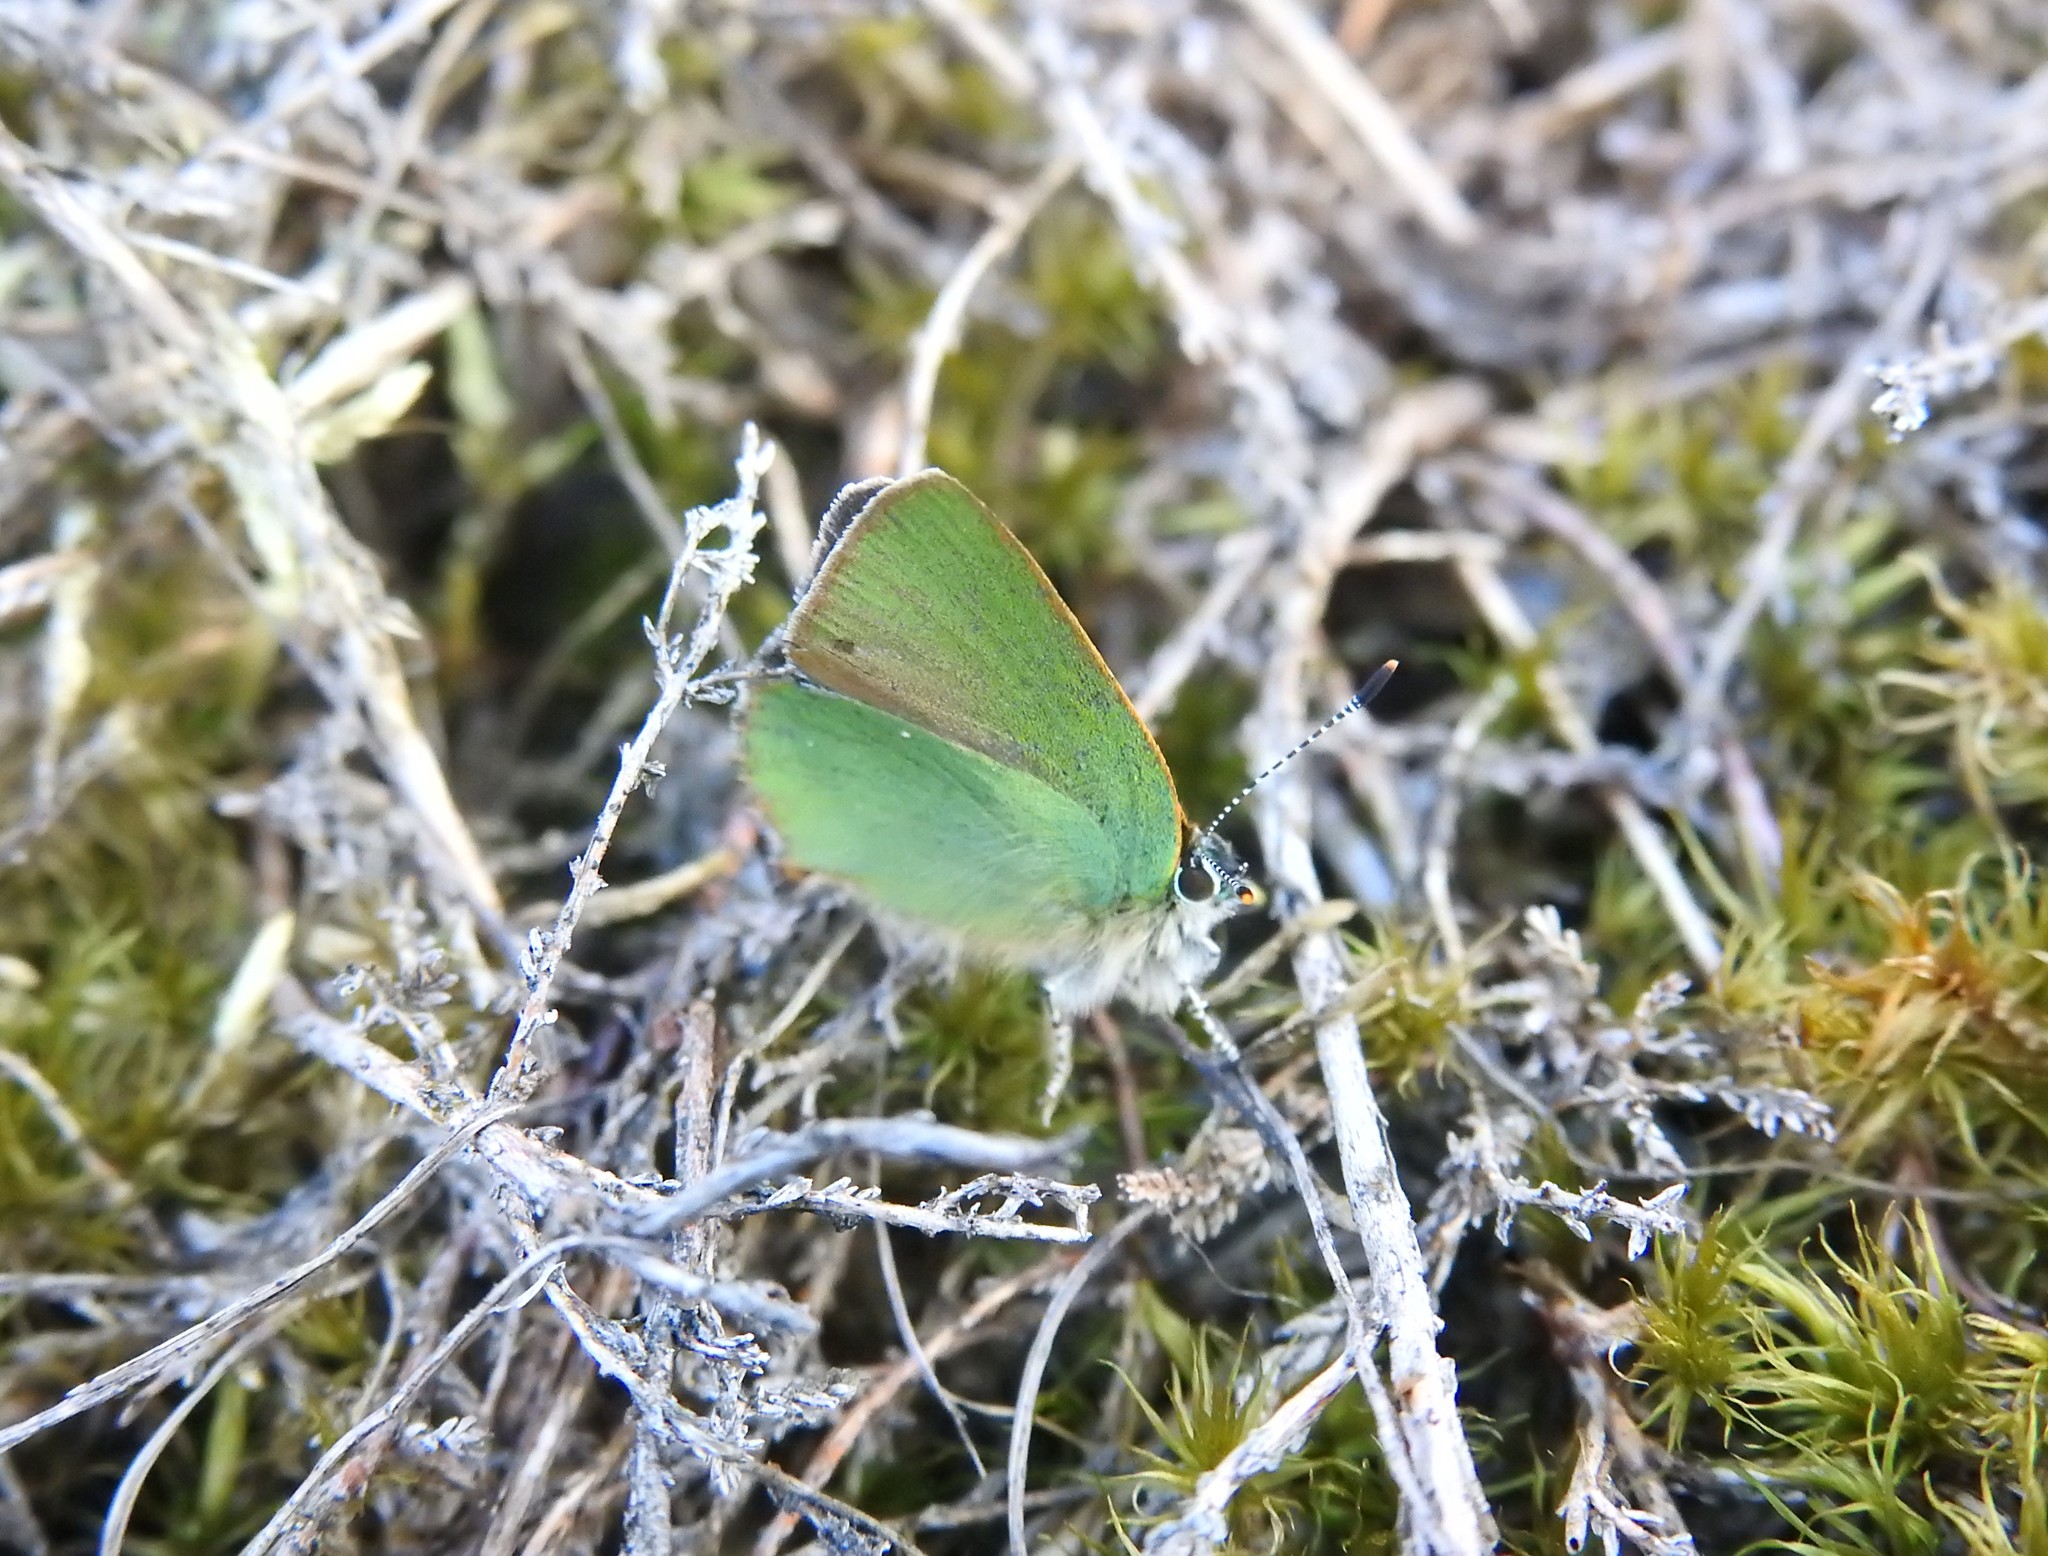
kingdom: Animalia
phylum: Arthropoda
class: Insecta
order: Lepidoptera
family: Lycaenidae
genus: Callophrys
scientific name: Callophrys rubi
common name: Green hairstreak
